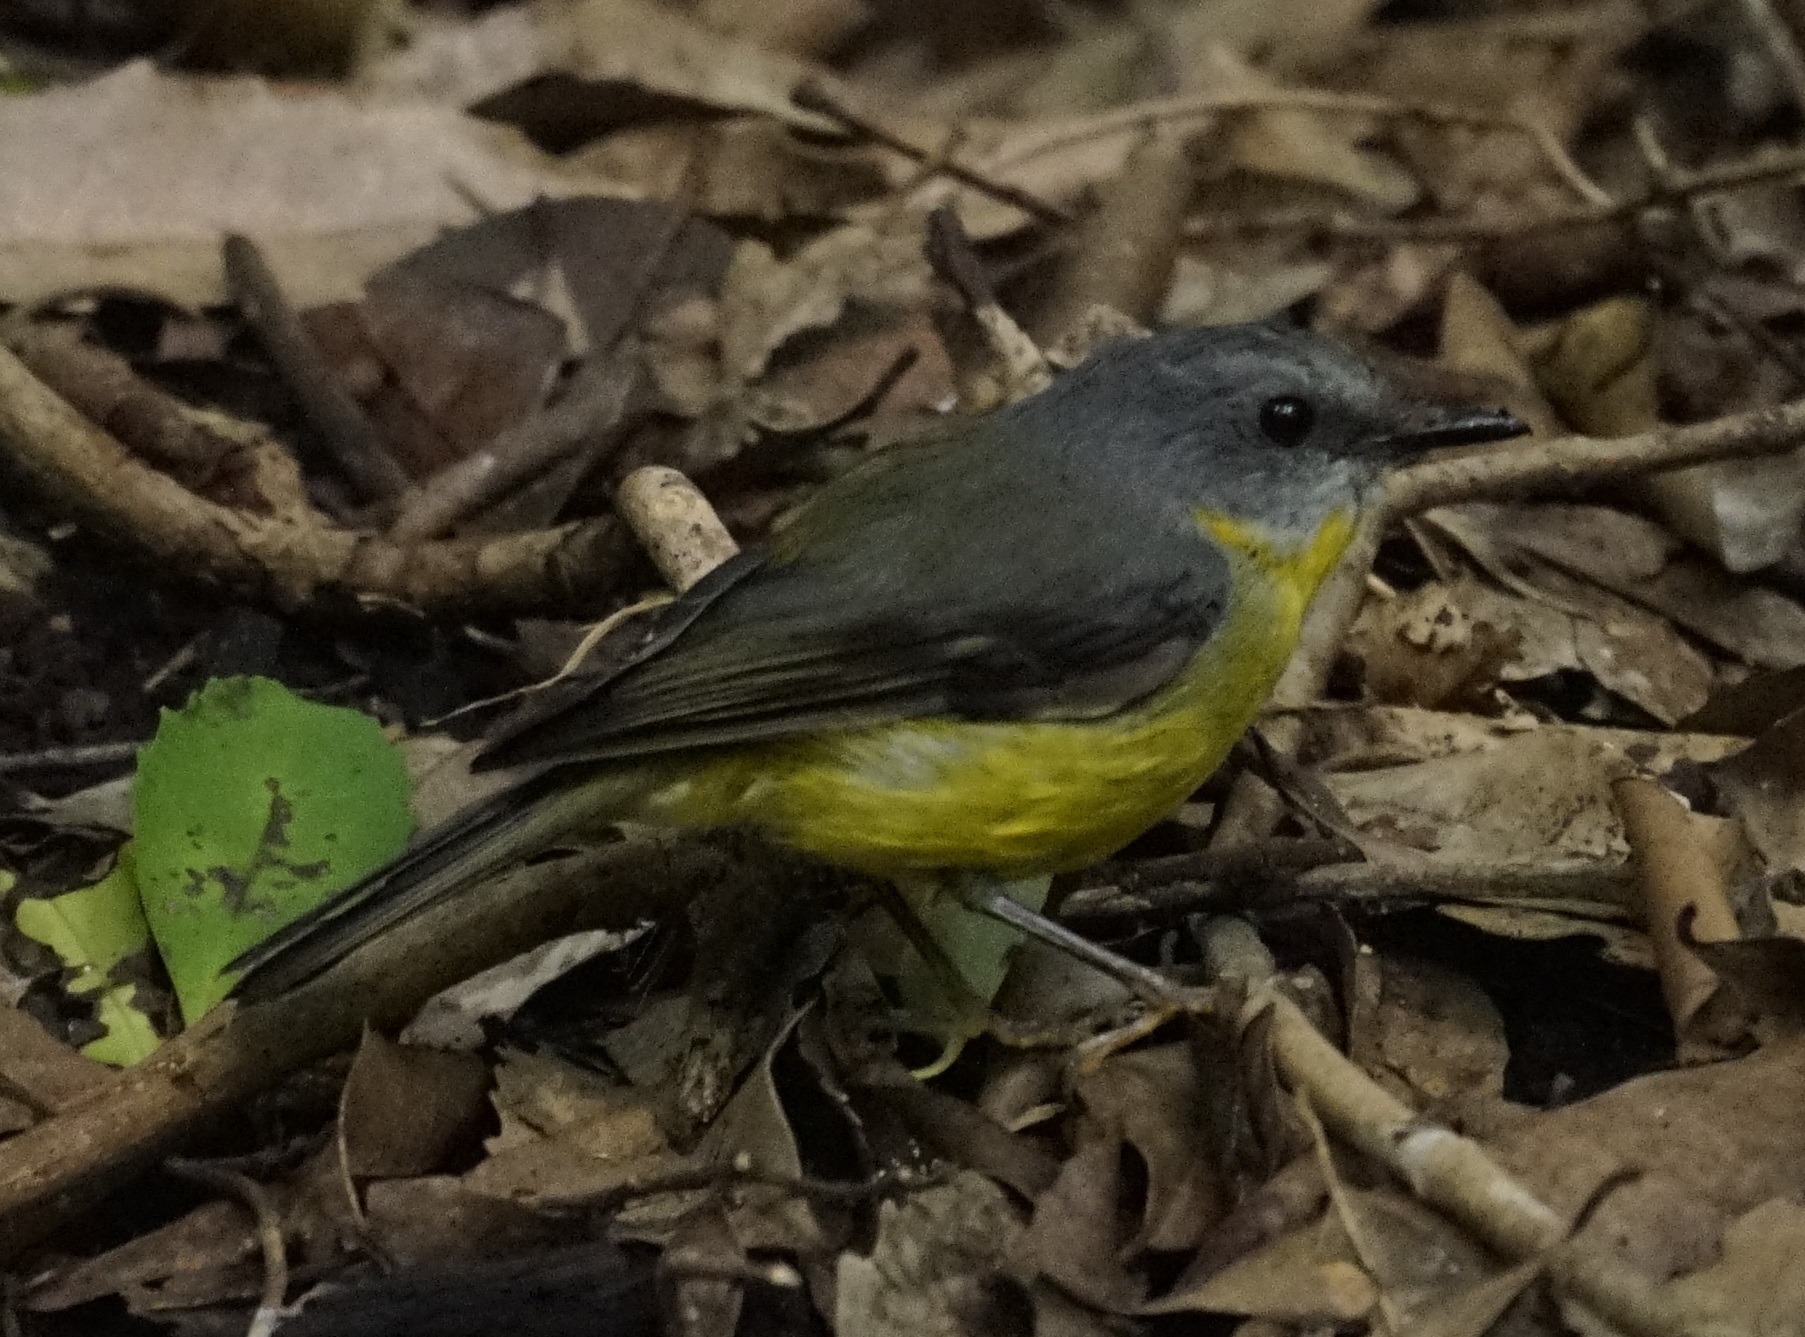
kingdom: Animalia
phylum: Chordata
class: Aves
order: Passeriformes
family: Petroicidae
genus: Eopsaltria
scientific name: Eopsaltria australis
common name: Eastern yellow robin
